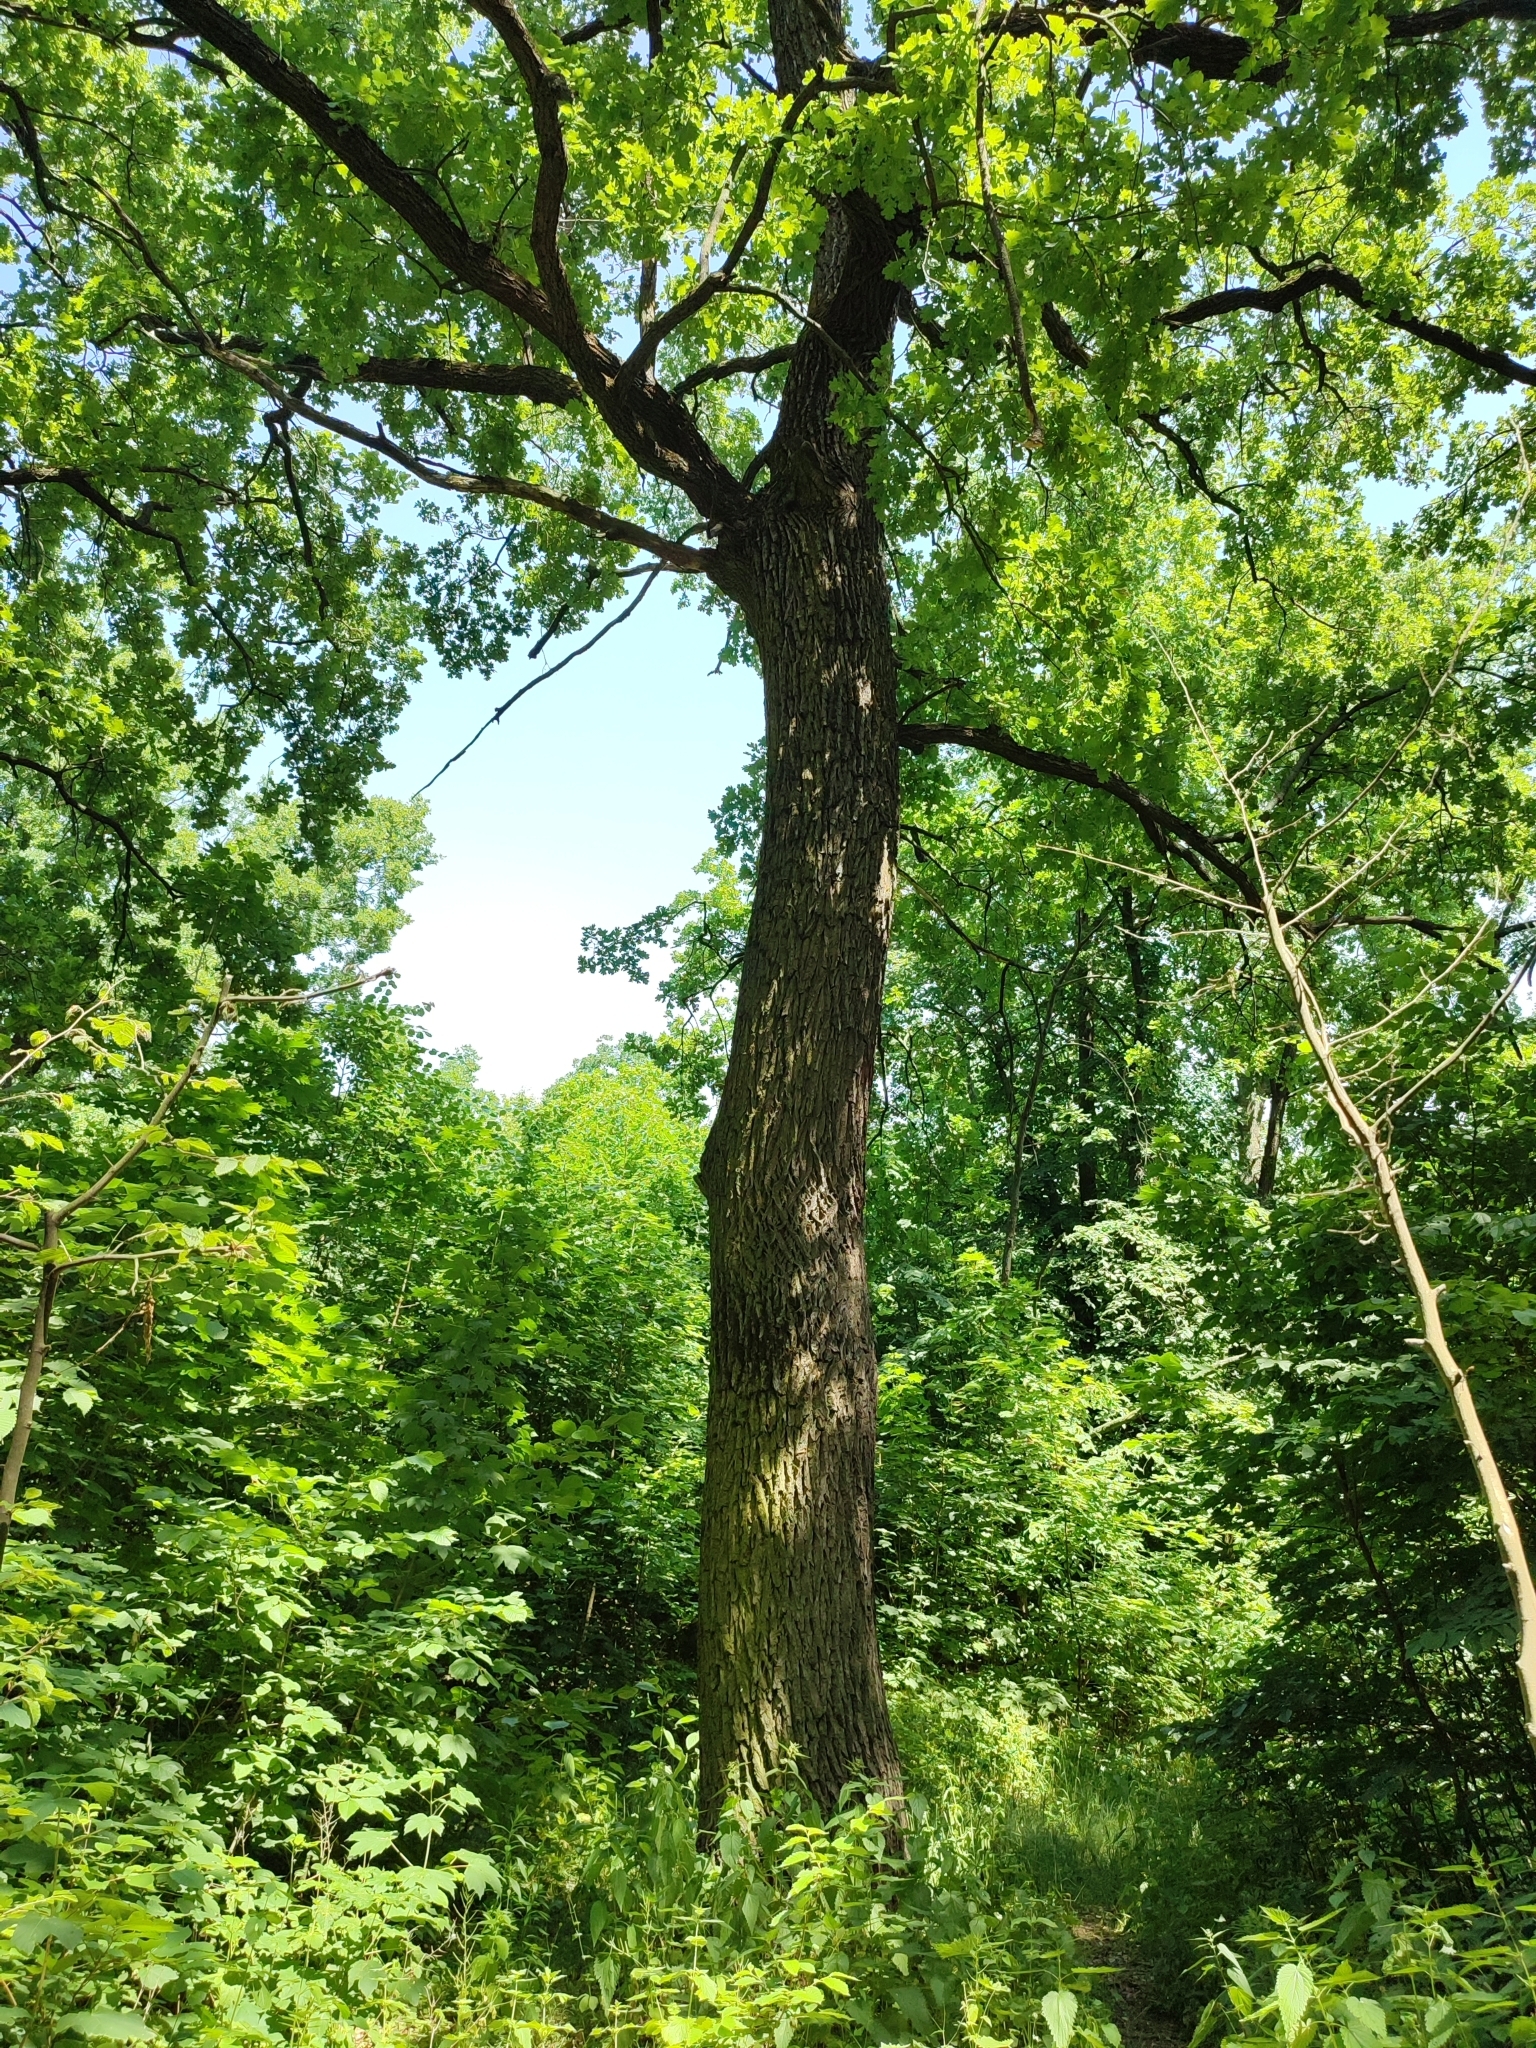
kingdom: Plantae
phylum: Tracheophyta
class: Magnoliopsida
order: Fagales
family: Fagaceae
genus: Quercus
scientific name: Quercus robur
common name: Pedunculate oak
